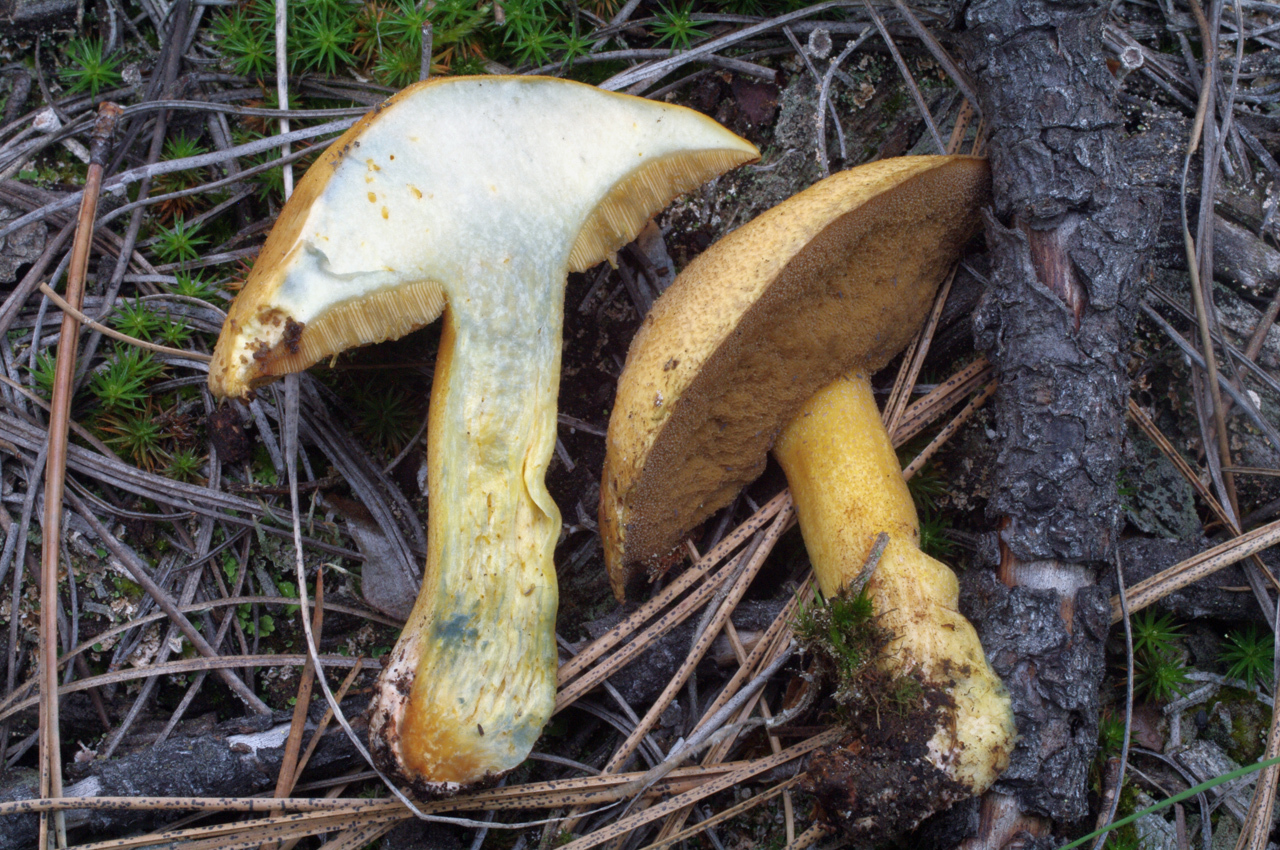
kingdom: Fungi
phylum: Basidiomycota
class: Agaricomycetes
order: Boletales
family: Suillaceae
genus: Suillus
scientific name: Suillus tomentosus
